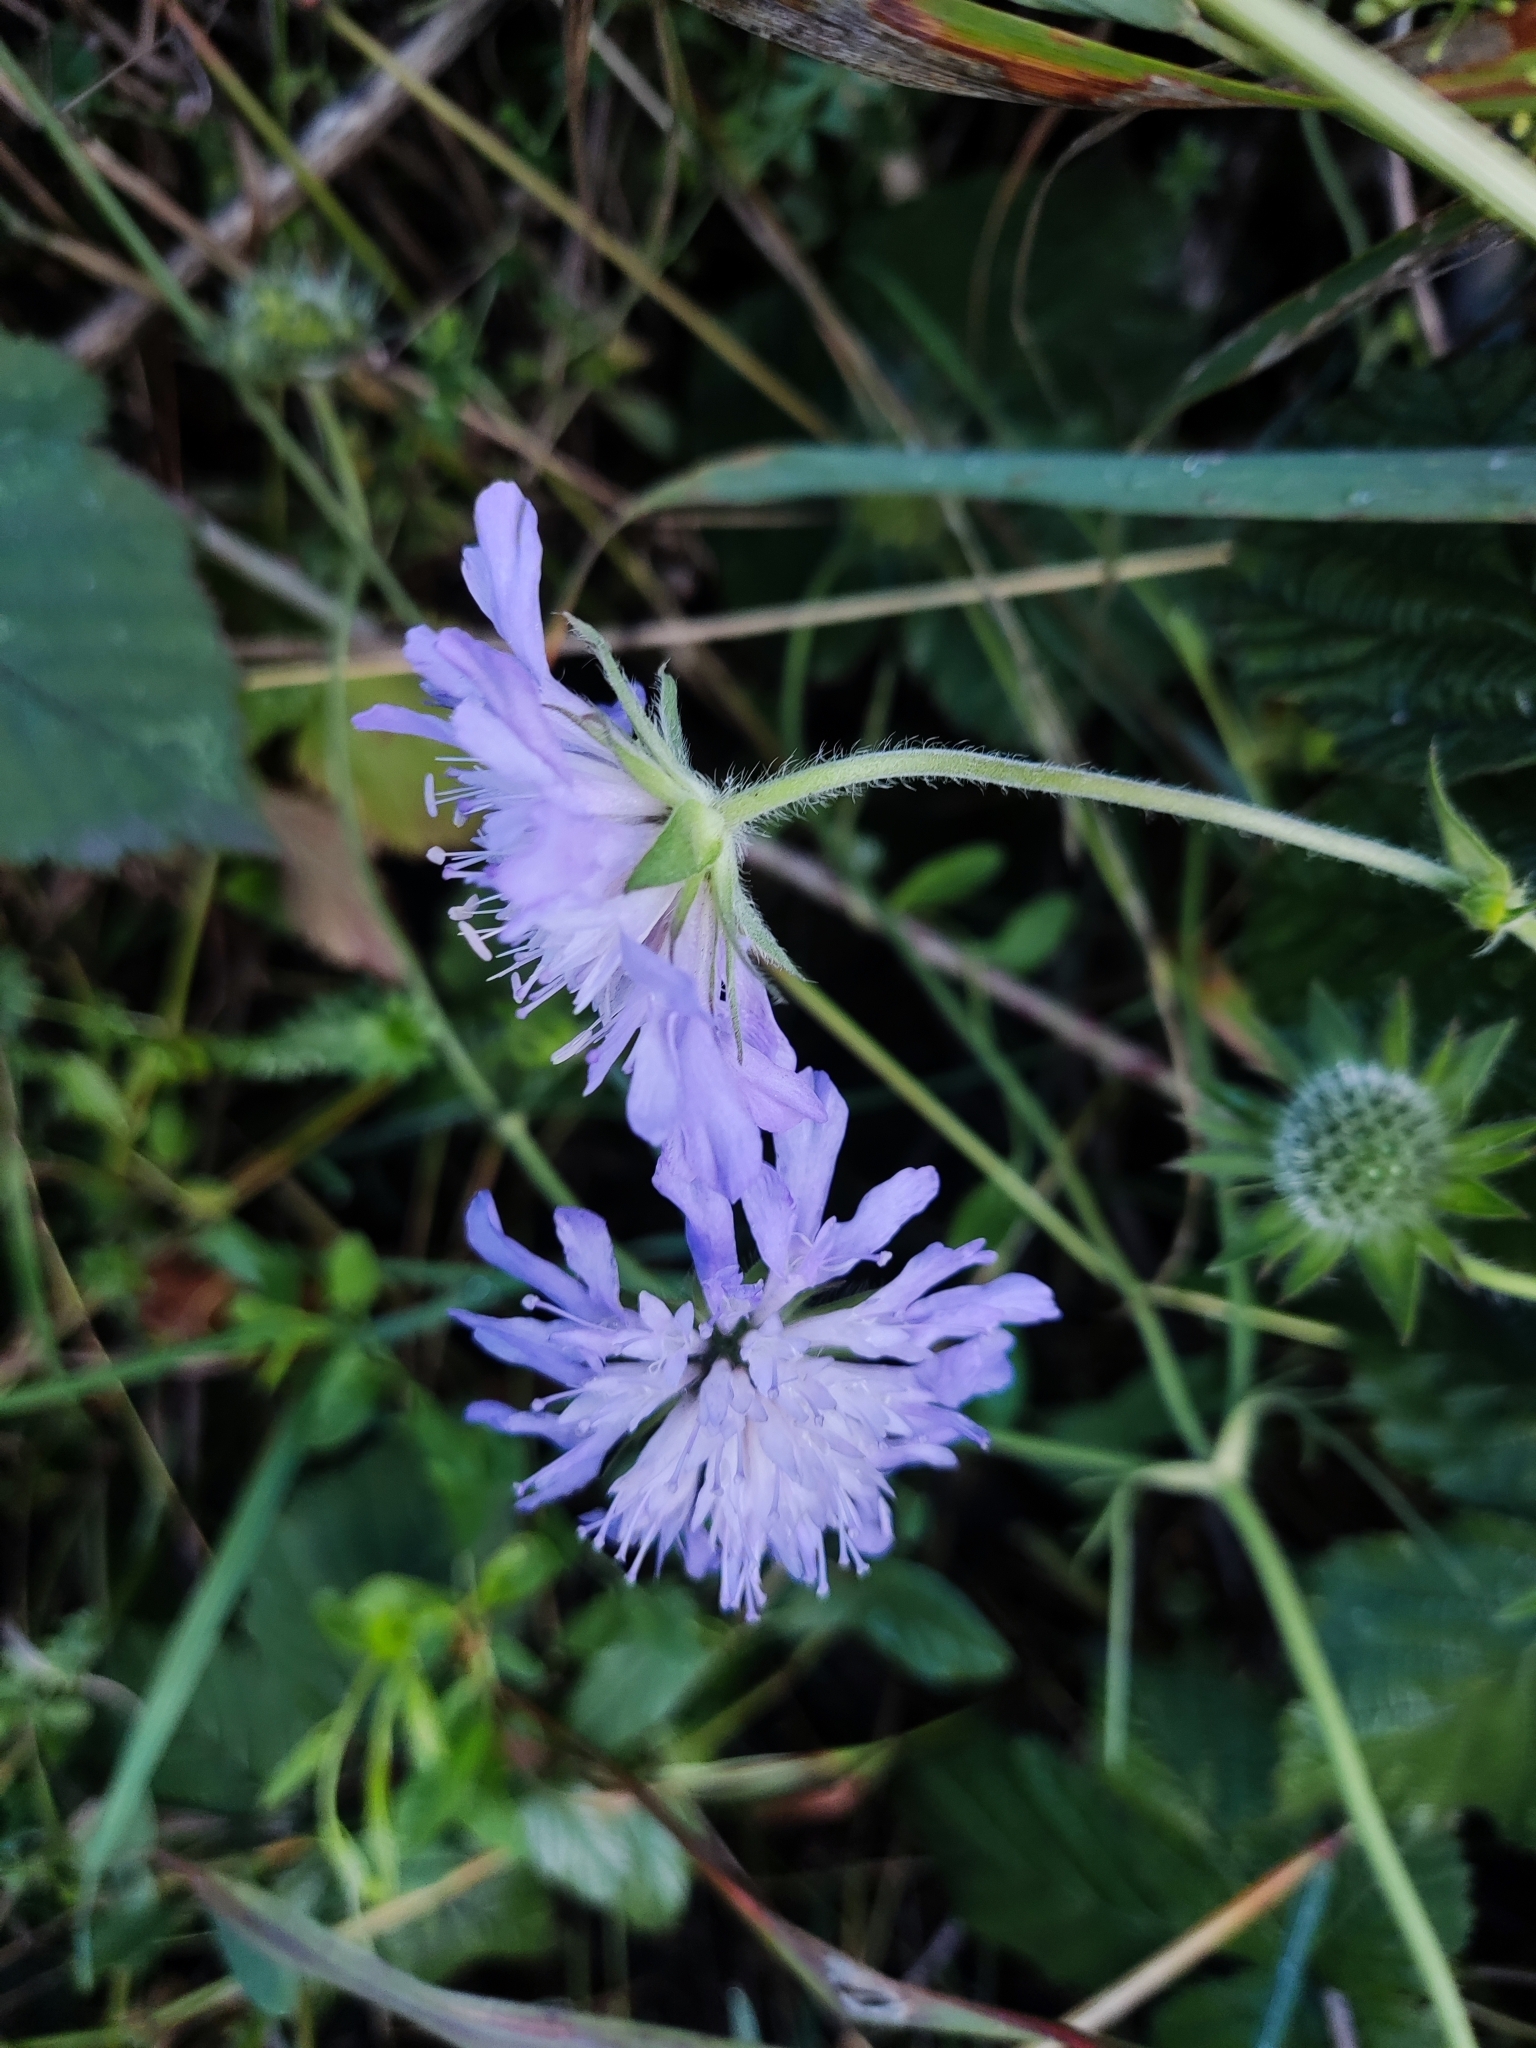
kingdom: Plantae
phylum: Tracheophyta
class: Magnoliopsida
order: Dipsacales
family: Caprifoliaceae
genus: Knautia
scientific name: Knautia arvensis
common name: Field scabiosa
